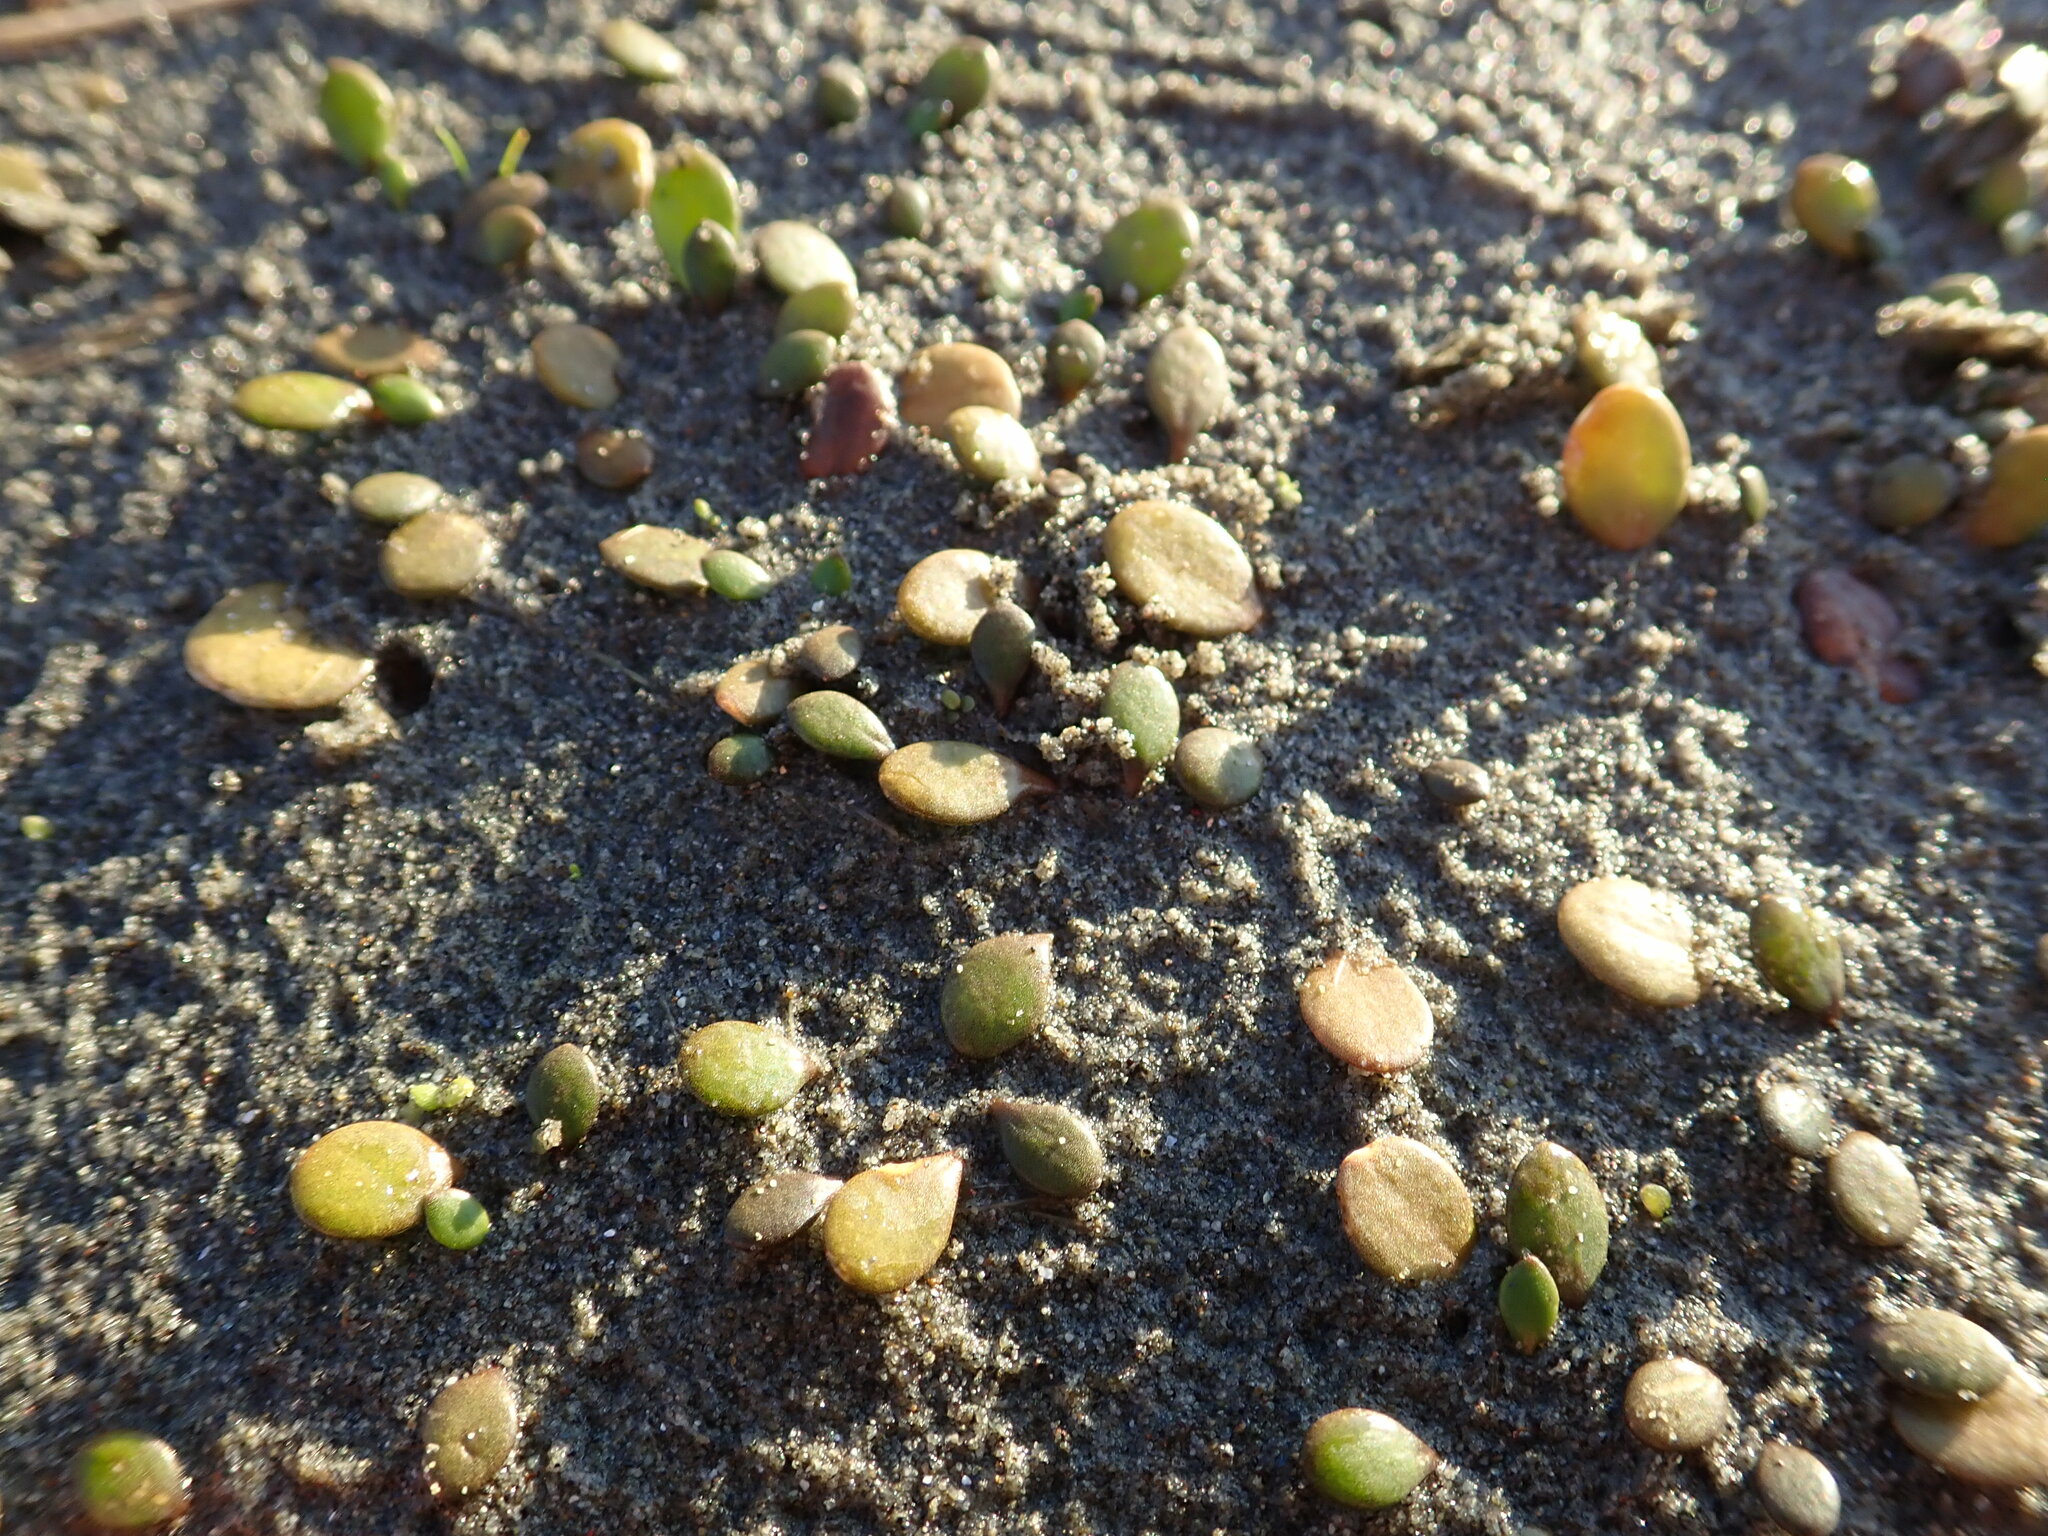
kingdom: Plantae
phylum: Tracheophyta
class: Magnoliopsida
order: Asterales
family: Goodeniaceae
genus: Goodenia
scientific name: Goodenia heenanii
